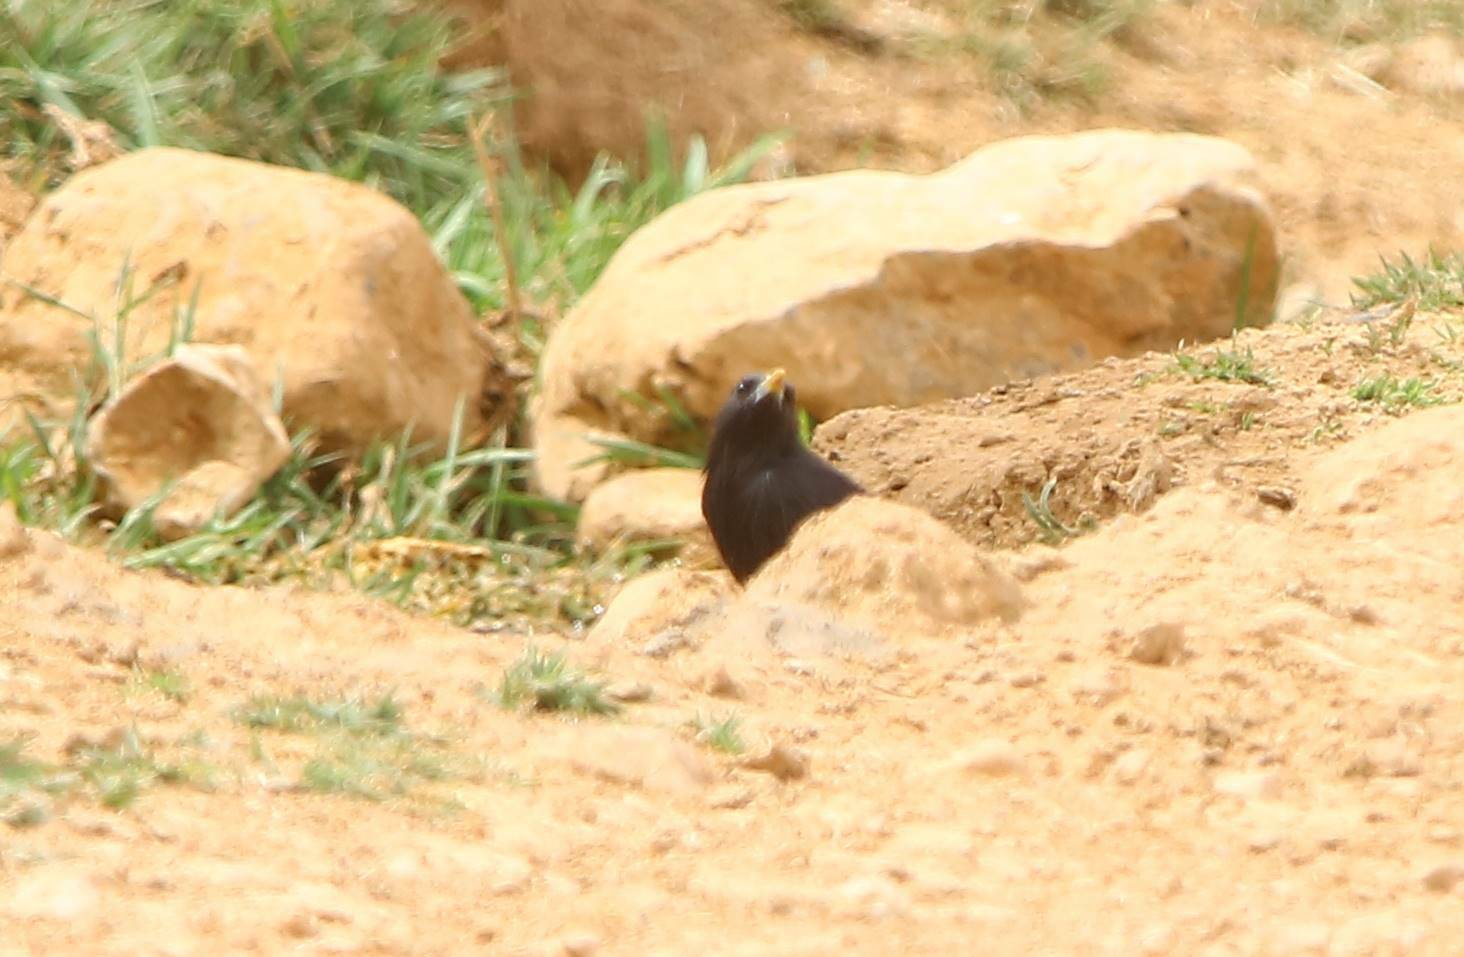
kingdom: Animalia
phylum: Chordata
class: Aves
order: Passeriformes
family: Sturnidae
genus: Sturnus
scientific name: Sturnus unicolor
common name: Spotless starling
